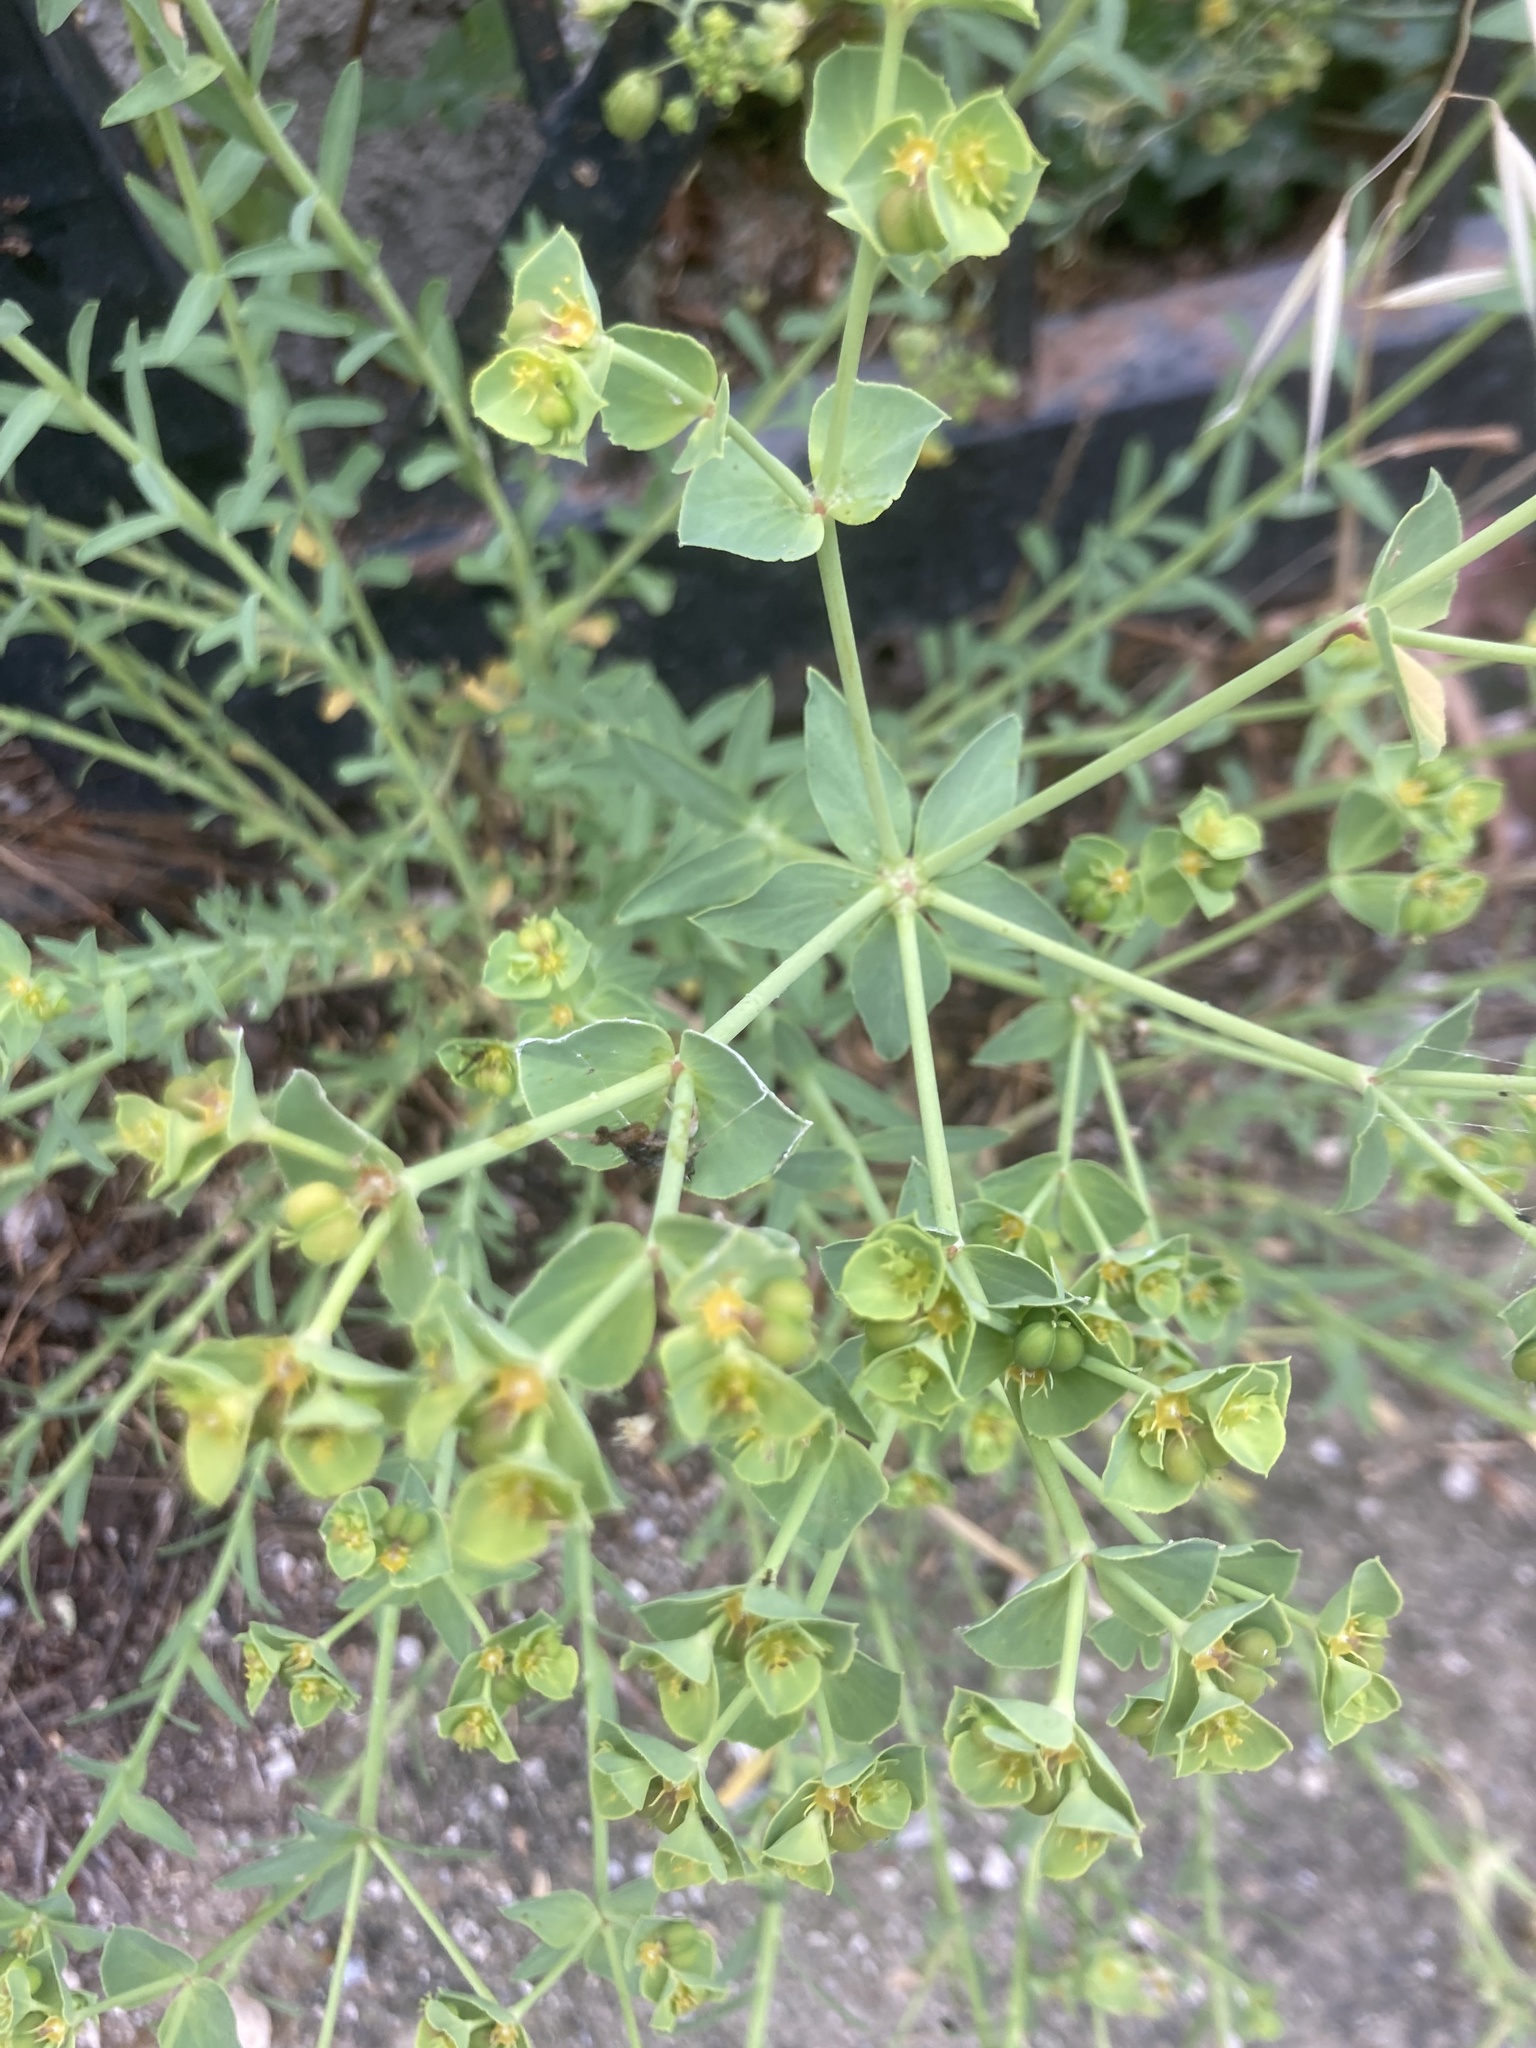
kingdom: Plantae
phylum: Tracheophyta
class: Magnoliopsida
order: Malpighiales
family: Euphorbiaceae
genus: Euphorbia
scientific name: Euphorbia terracina
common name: Geraldton carnation weed
